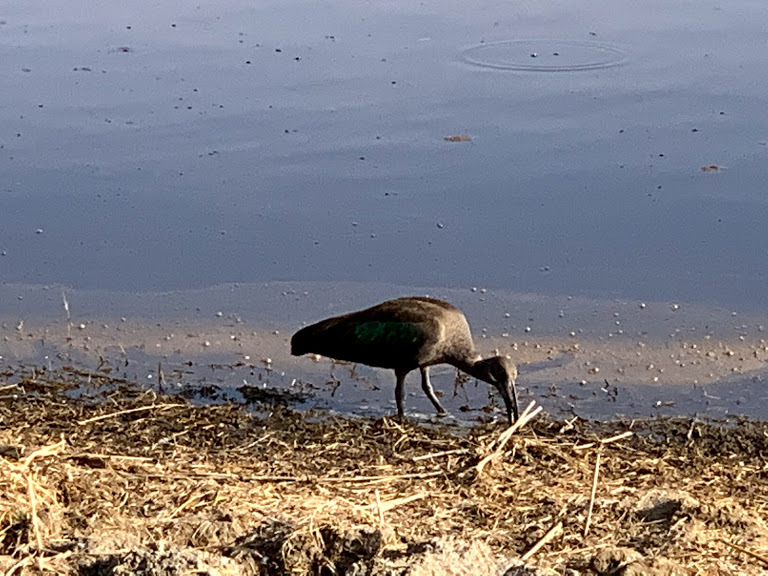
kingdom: Animalia
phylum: Chordata
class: Aves
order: Pelecaniformes
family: Threskiornithidae
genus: Bostrychia
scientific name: Bostrychia hagedash
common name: Hadada ibis
